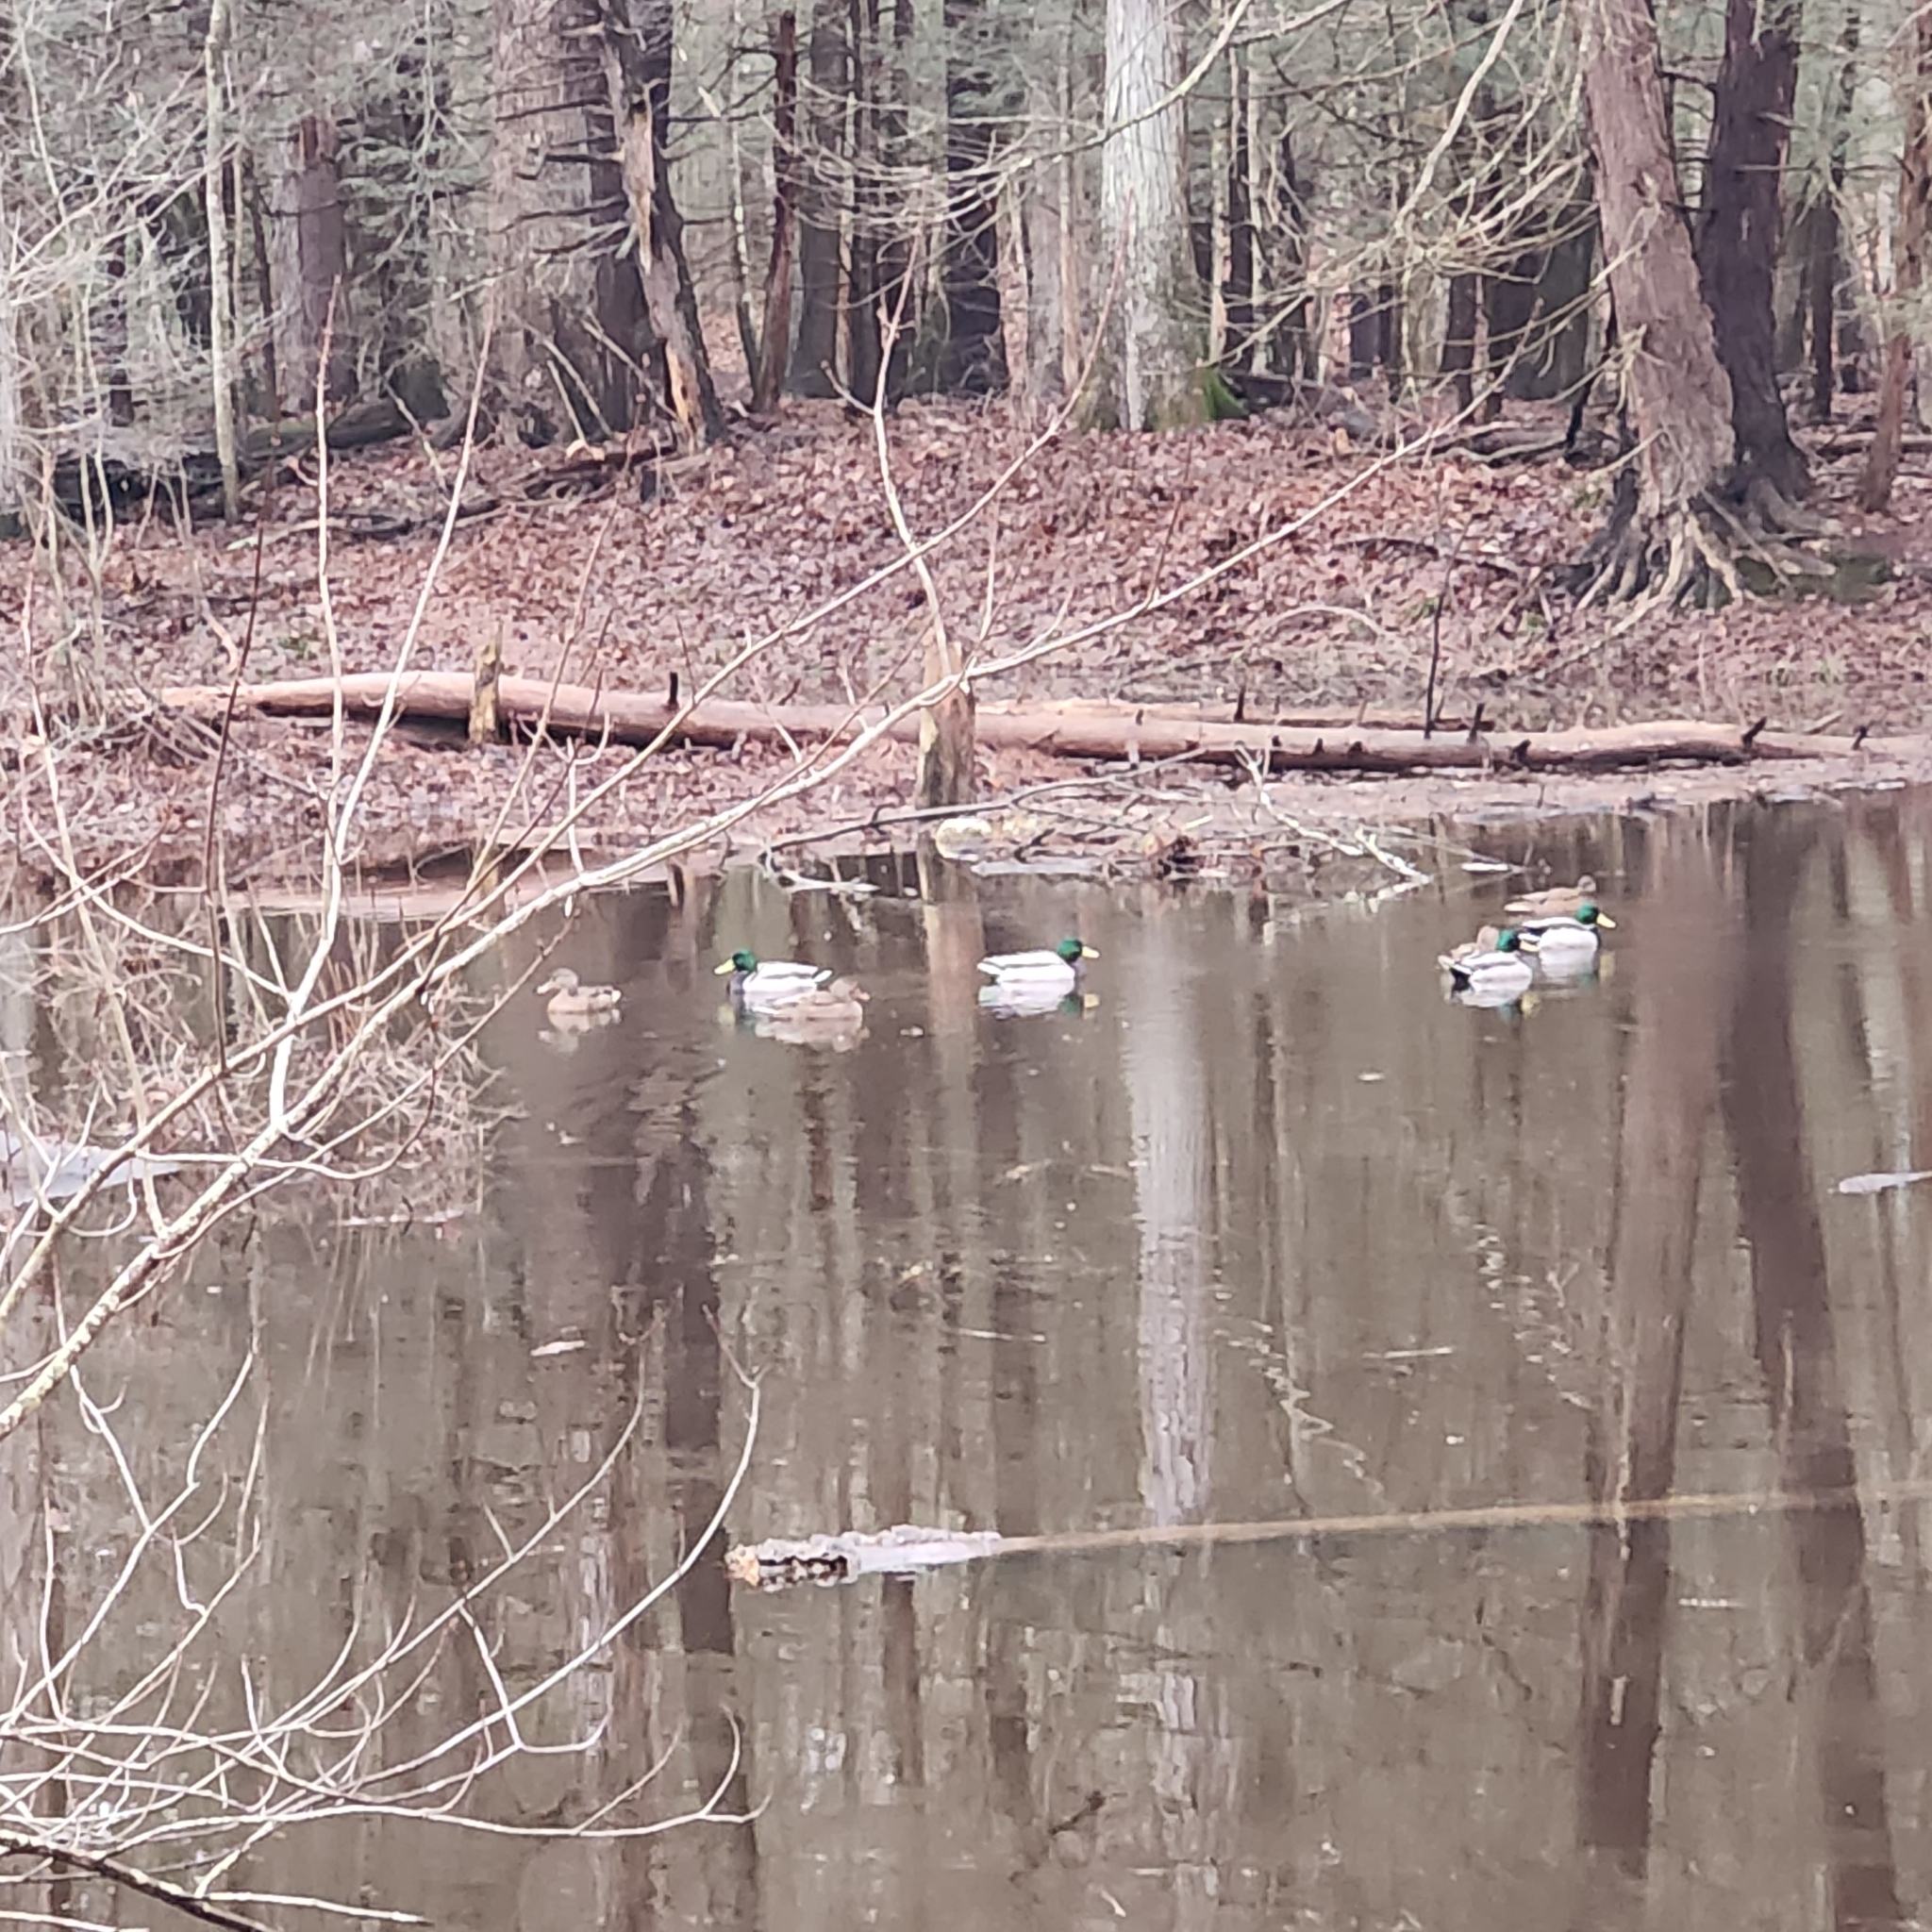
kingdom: Animalia
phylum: Chordata
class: Aves
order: Anseriformes
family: Anatidae
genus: Anas
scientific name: Anas platyrhynchos
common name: Mallard
